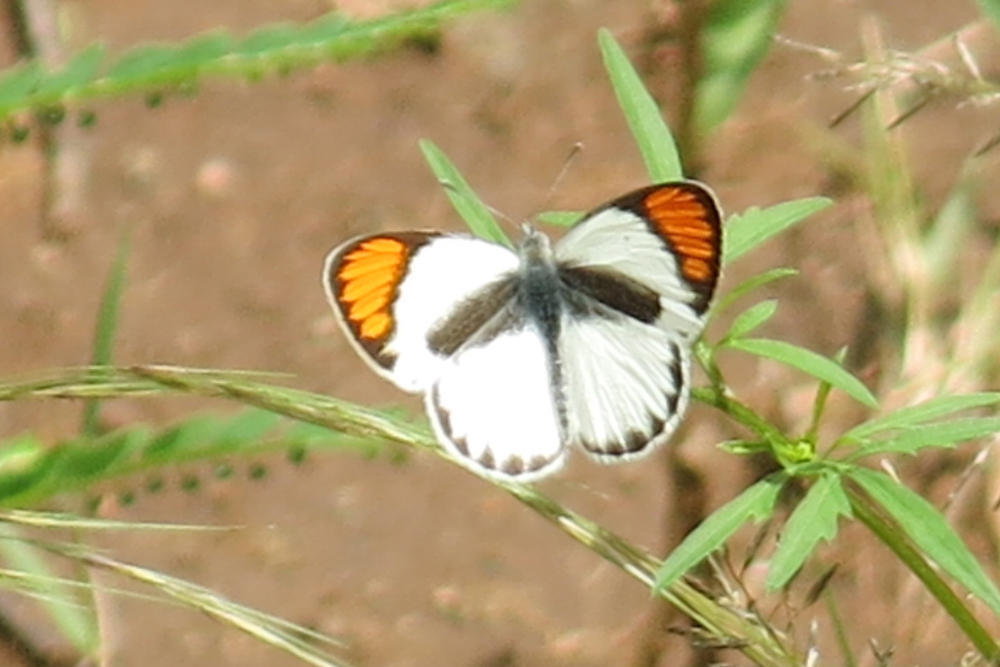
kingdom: Animalia
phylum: Arthropoda
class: Insecta
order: Lepidoptera
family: Pieridae
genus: Colotis
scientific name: Colotis pallene
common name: Bushveld orange tip
